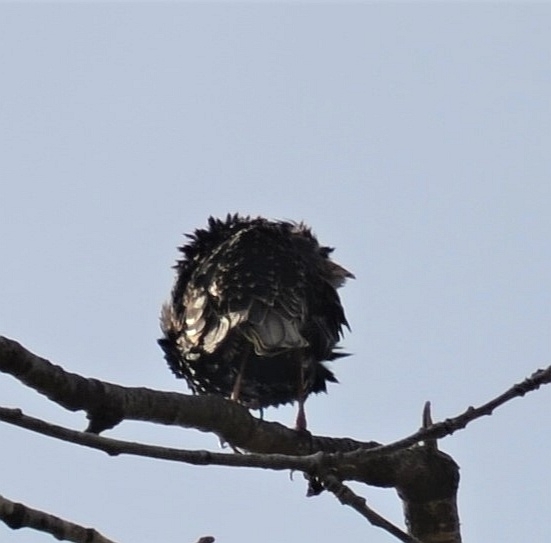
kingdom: Animalia
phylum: Chordata
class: Aves
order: Passeriformes
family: Sturnidae
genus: Sturnus
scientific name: Sturnus vulgaris
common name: Common starling
